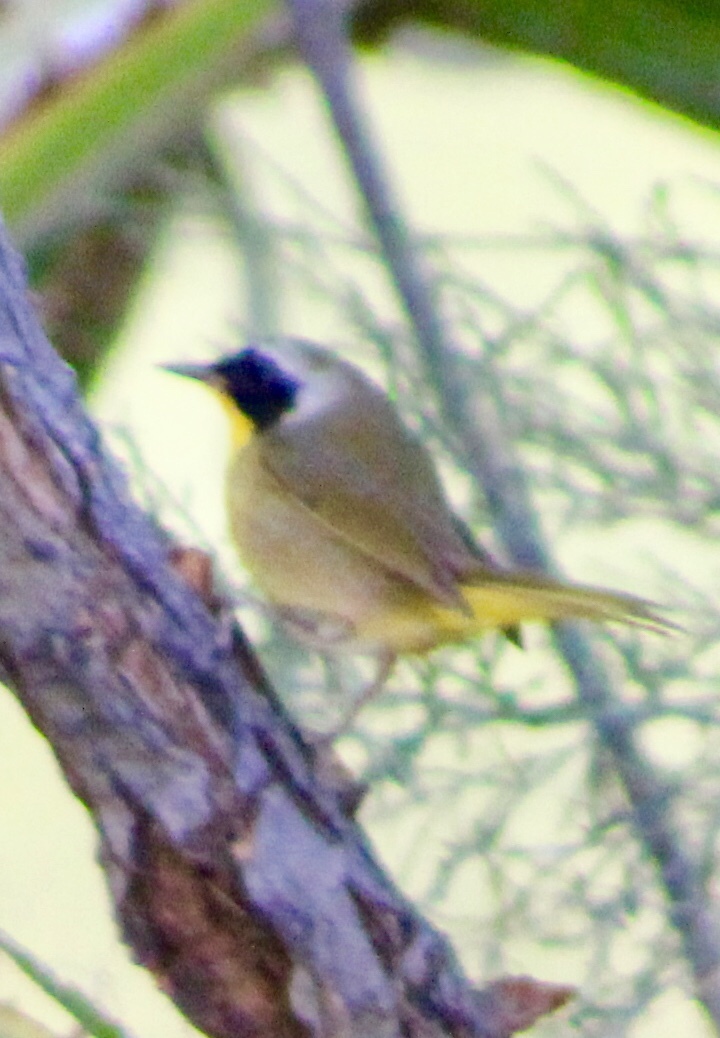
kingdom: Animalia
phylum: Chordata
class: Aves
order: Passeriformes
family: Parulidae
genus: Geothlypis
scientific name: Geothlypis trichas
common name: Common yellowthroat
